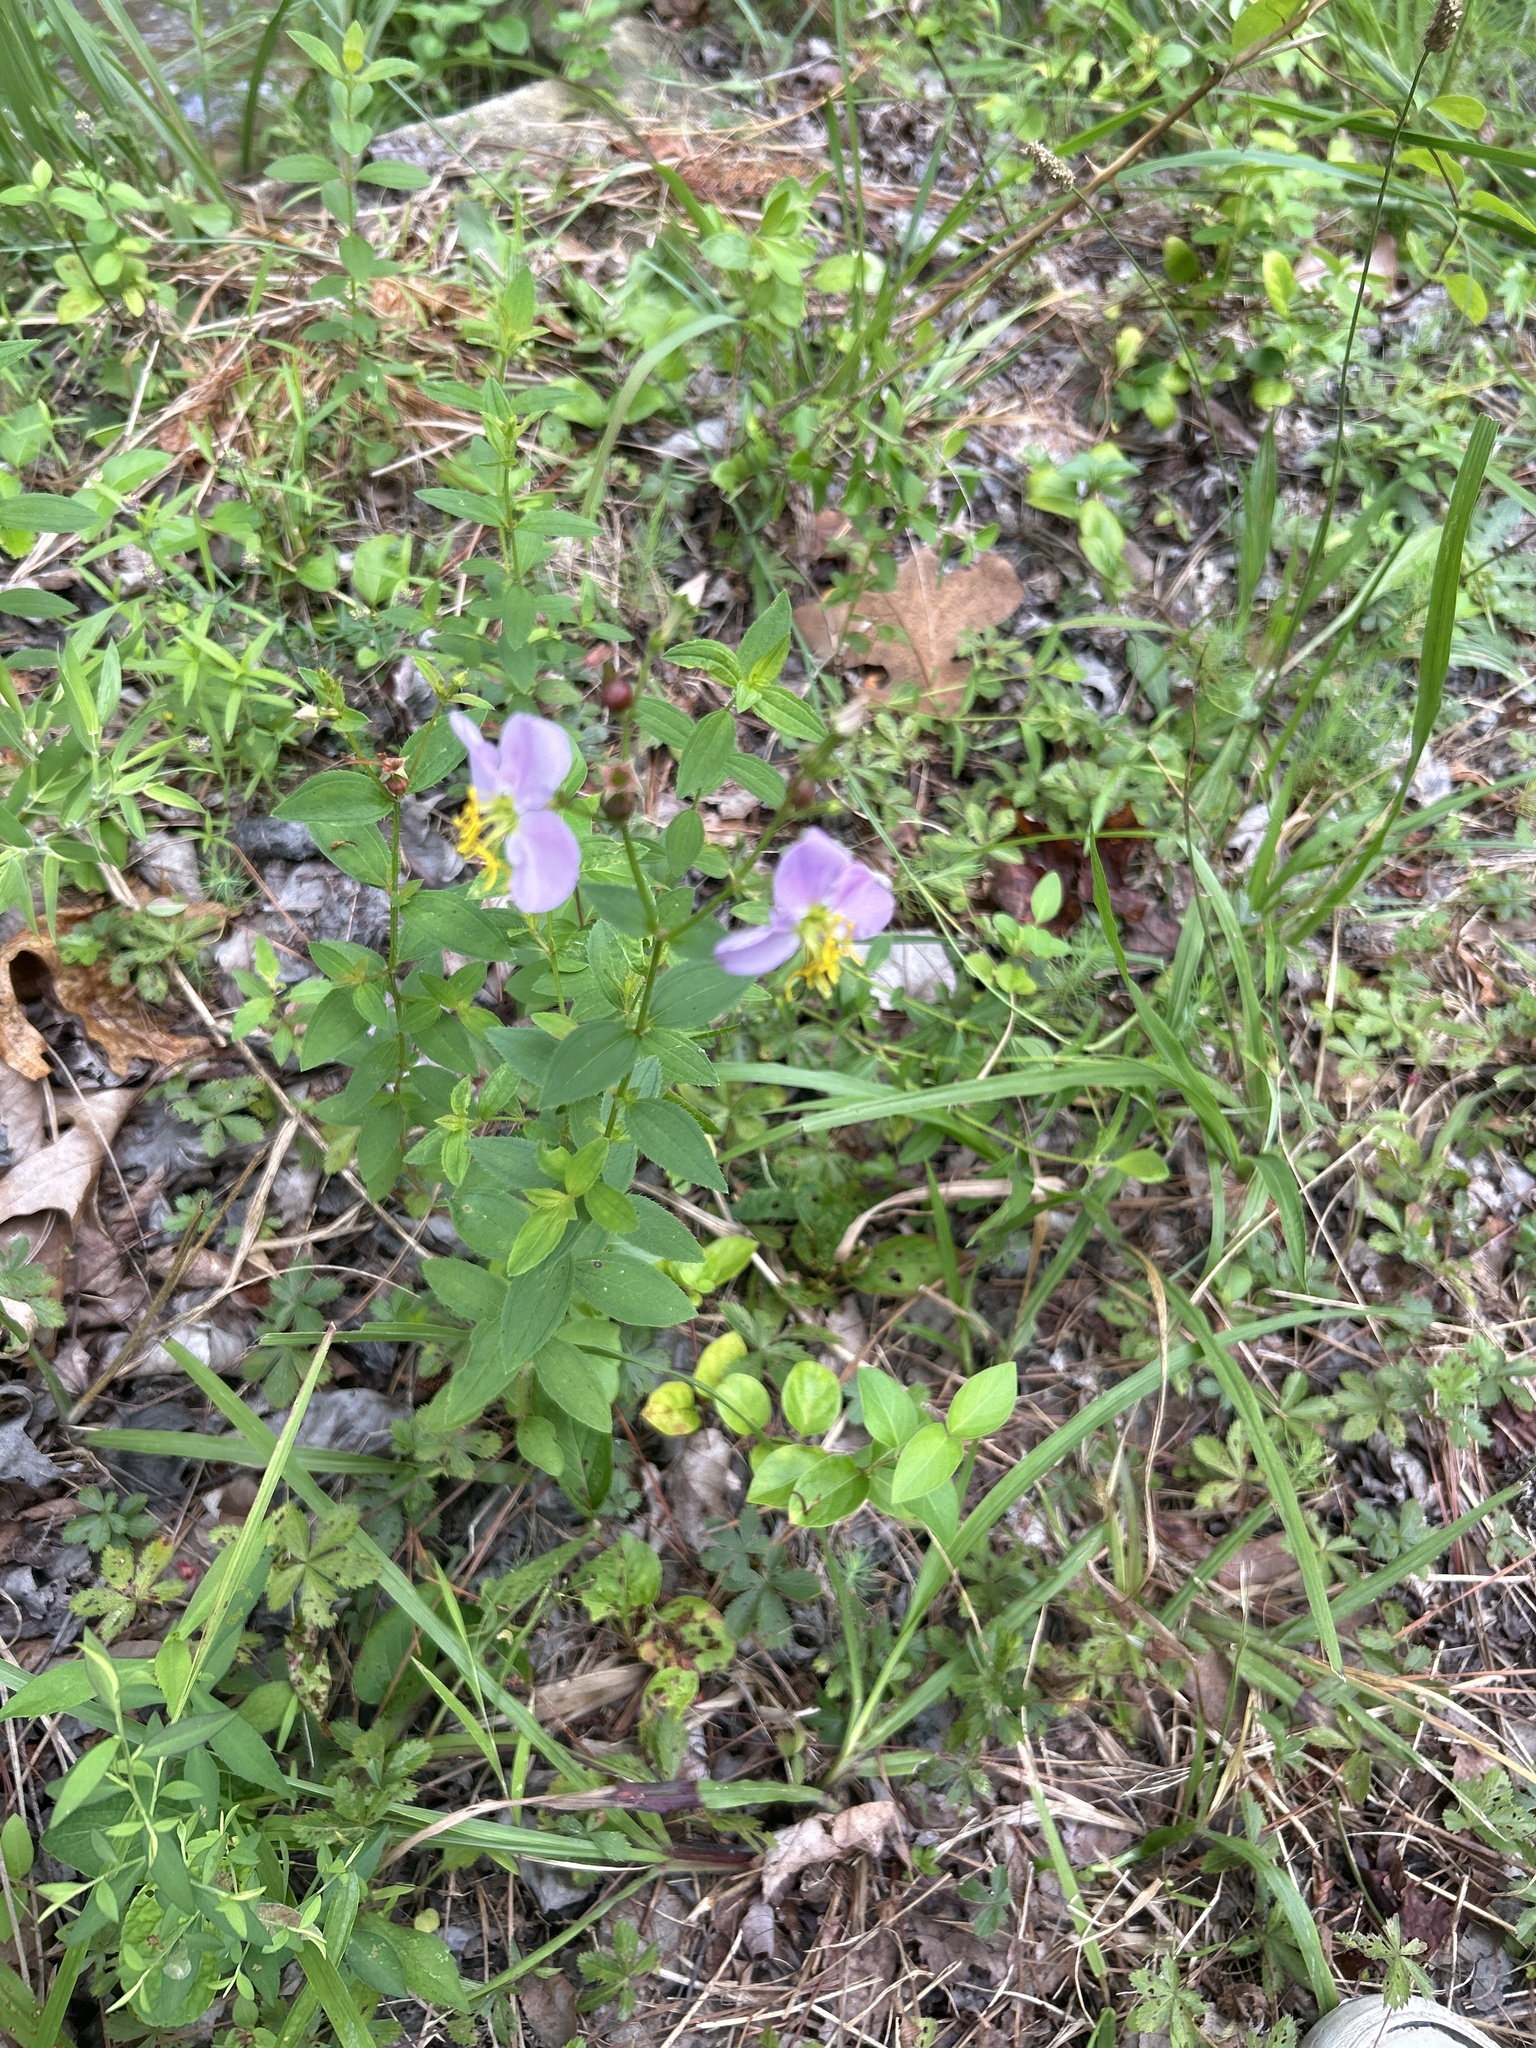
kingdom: Plantae
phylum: Tracheophyta
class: Magnoliopsida
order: Myrtales
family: Melastomataceae
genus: Rhexia
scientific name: Rhexia mariana
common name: Dull meadow-pitcher
